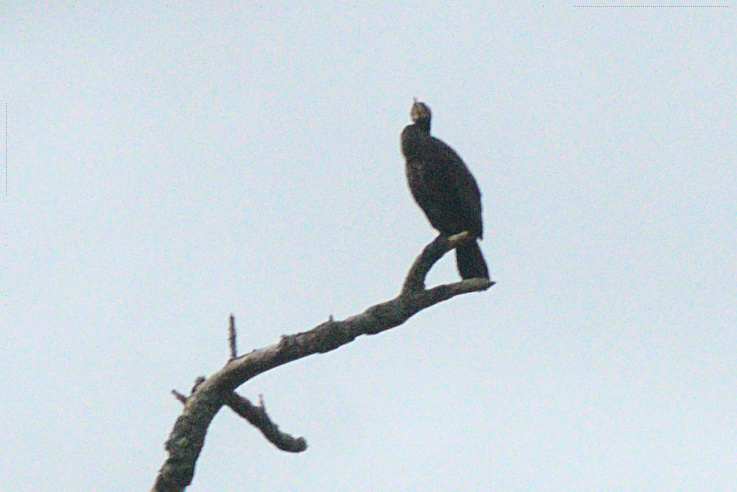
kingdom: Animalia
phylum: Chordata
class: Aves
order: Suliformes
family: Phalacrocoracidae
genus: Phalacrocorax
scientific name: Phalacrocorax carbo
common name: Great cormorant
